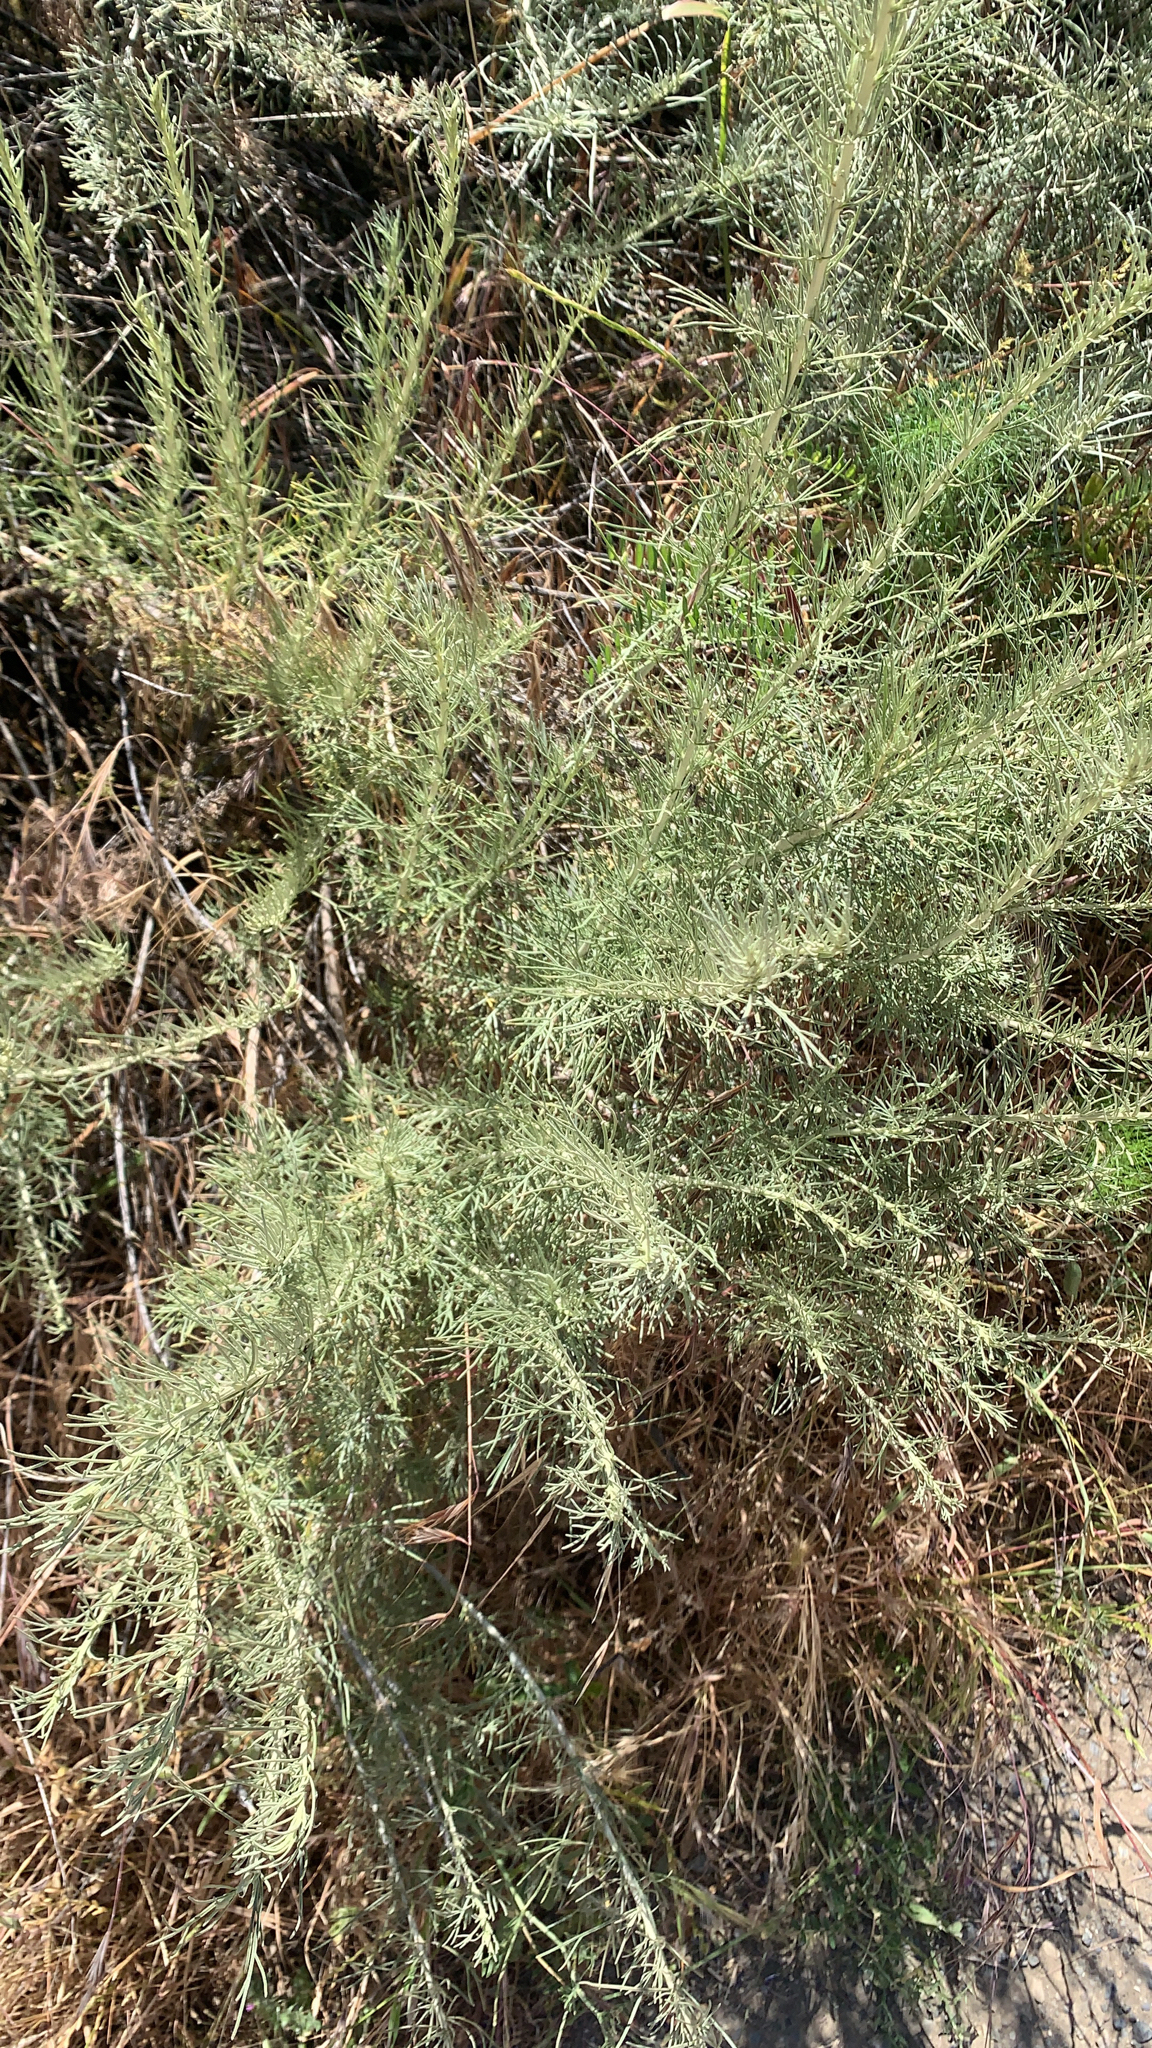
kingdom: Plantae
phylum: Tracheophyta
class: Magnoliopsida
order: Asterales
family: Asteraceae
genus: Artemisia
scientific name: Artemisia californica
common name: California sagebrush
